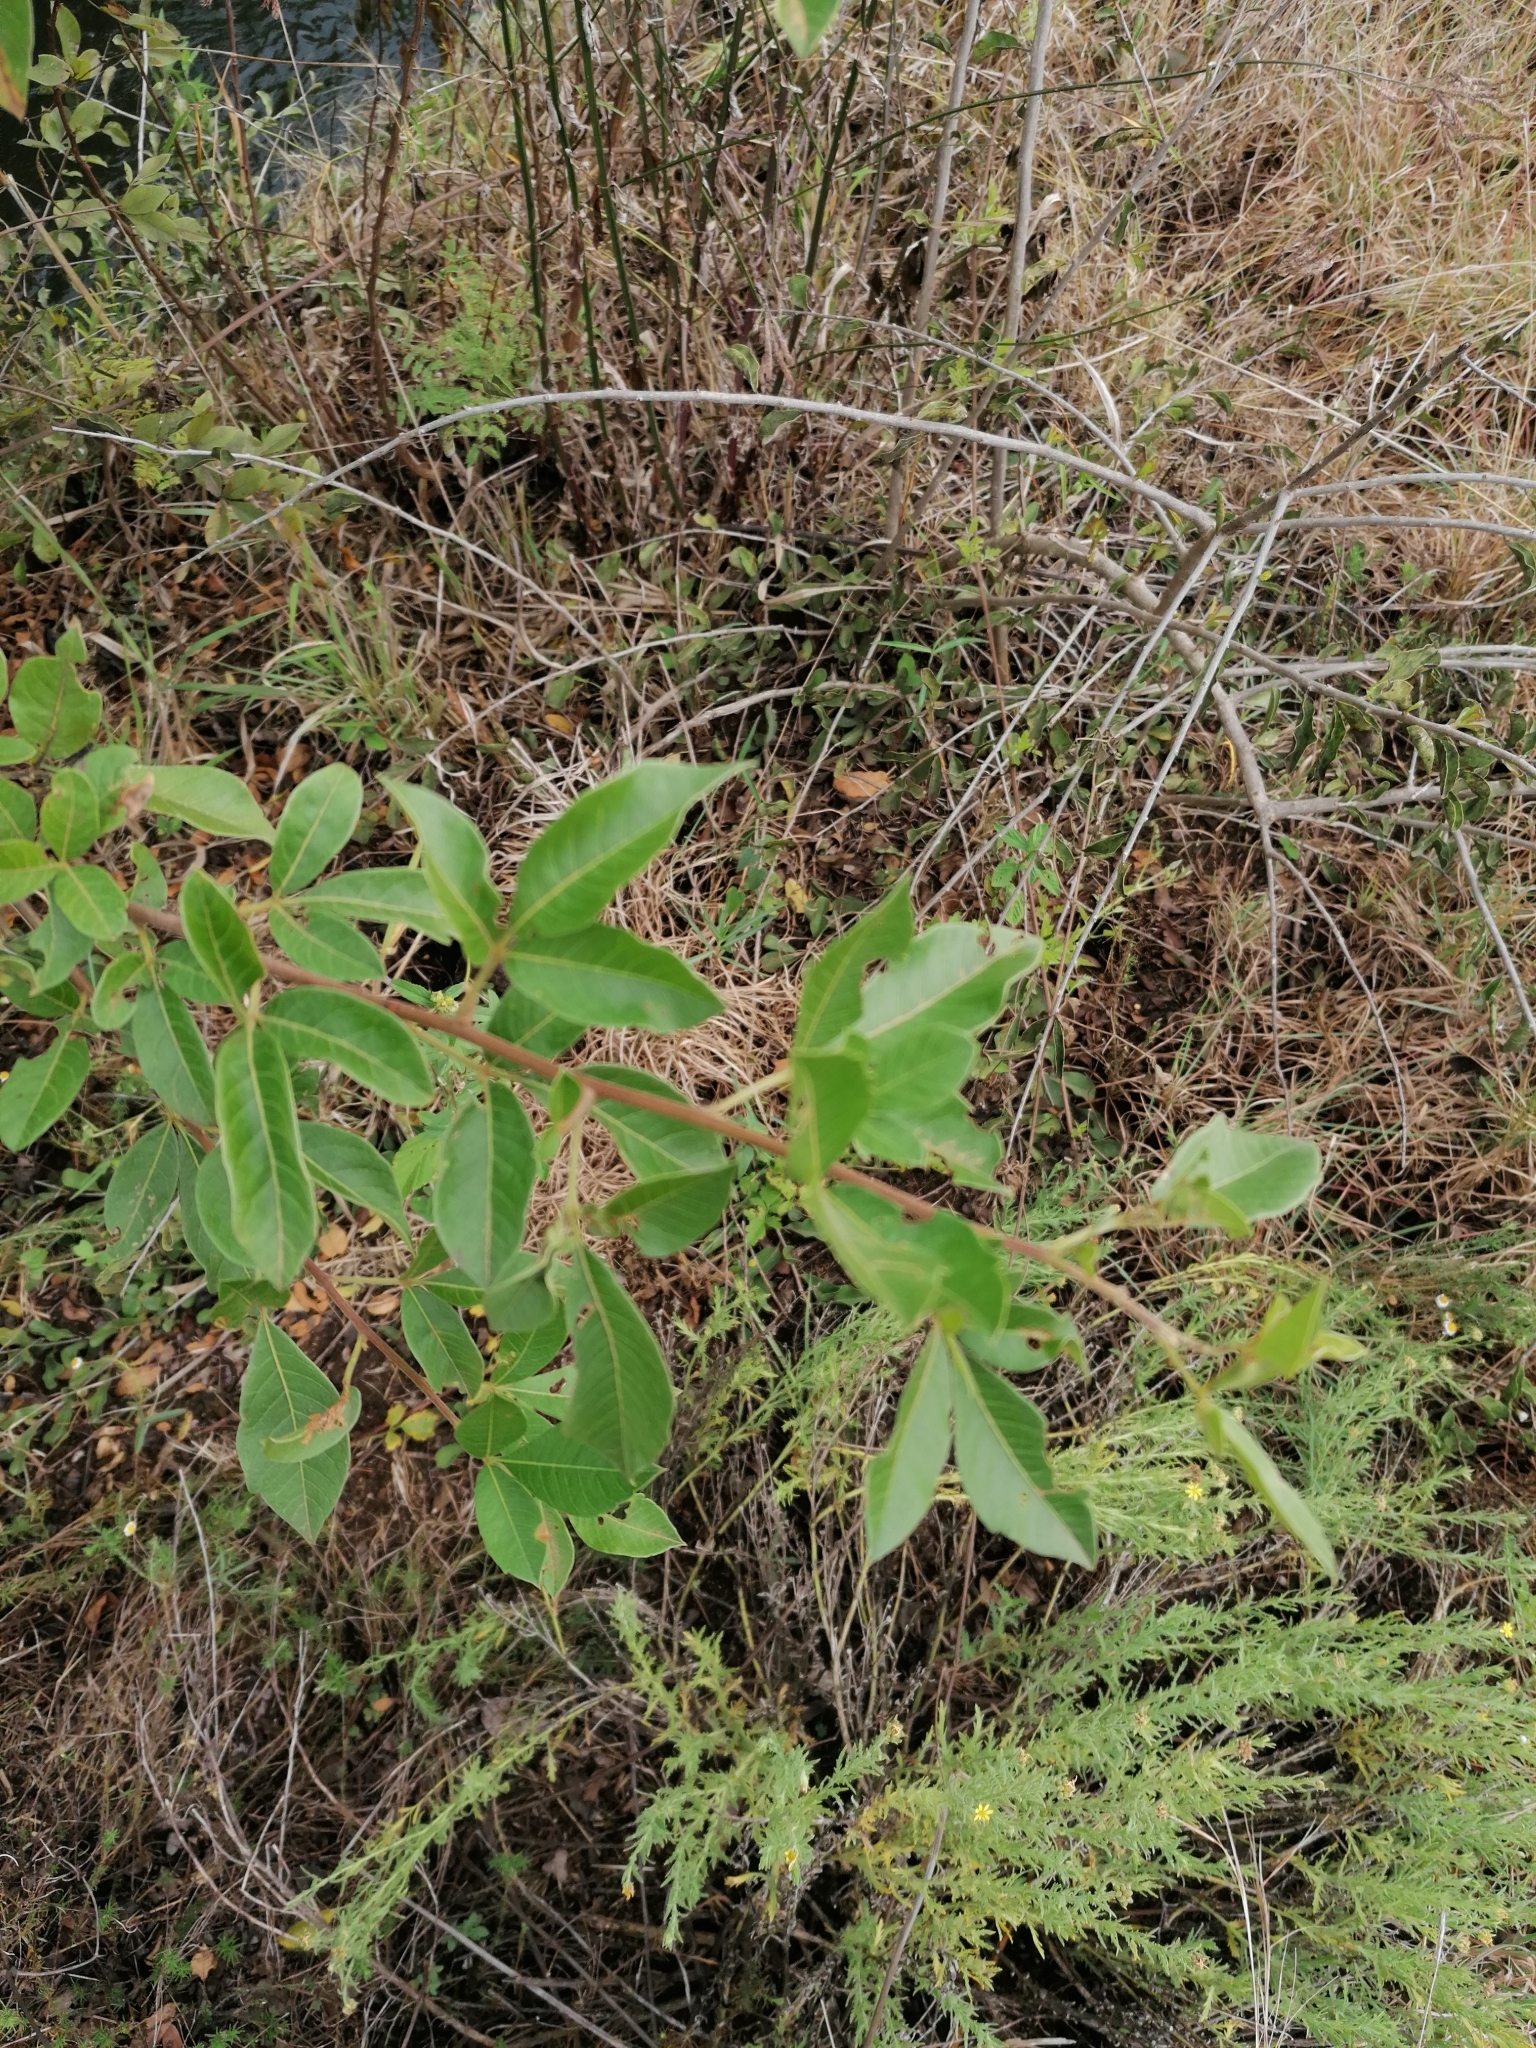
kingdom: Plantae
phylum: Tracheophyta
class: Magnoliopsida
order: Sapindales
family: Anacardiaceae
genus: Searsia
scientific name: Searsia pyroides
